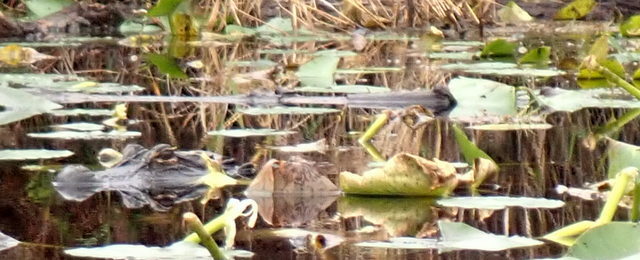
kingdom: Animalia
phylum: Chordata
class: Crocodylia
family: Alligatoridae
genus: Alligator
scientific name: Alligator mississippiensis
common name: American alligator
